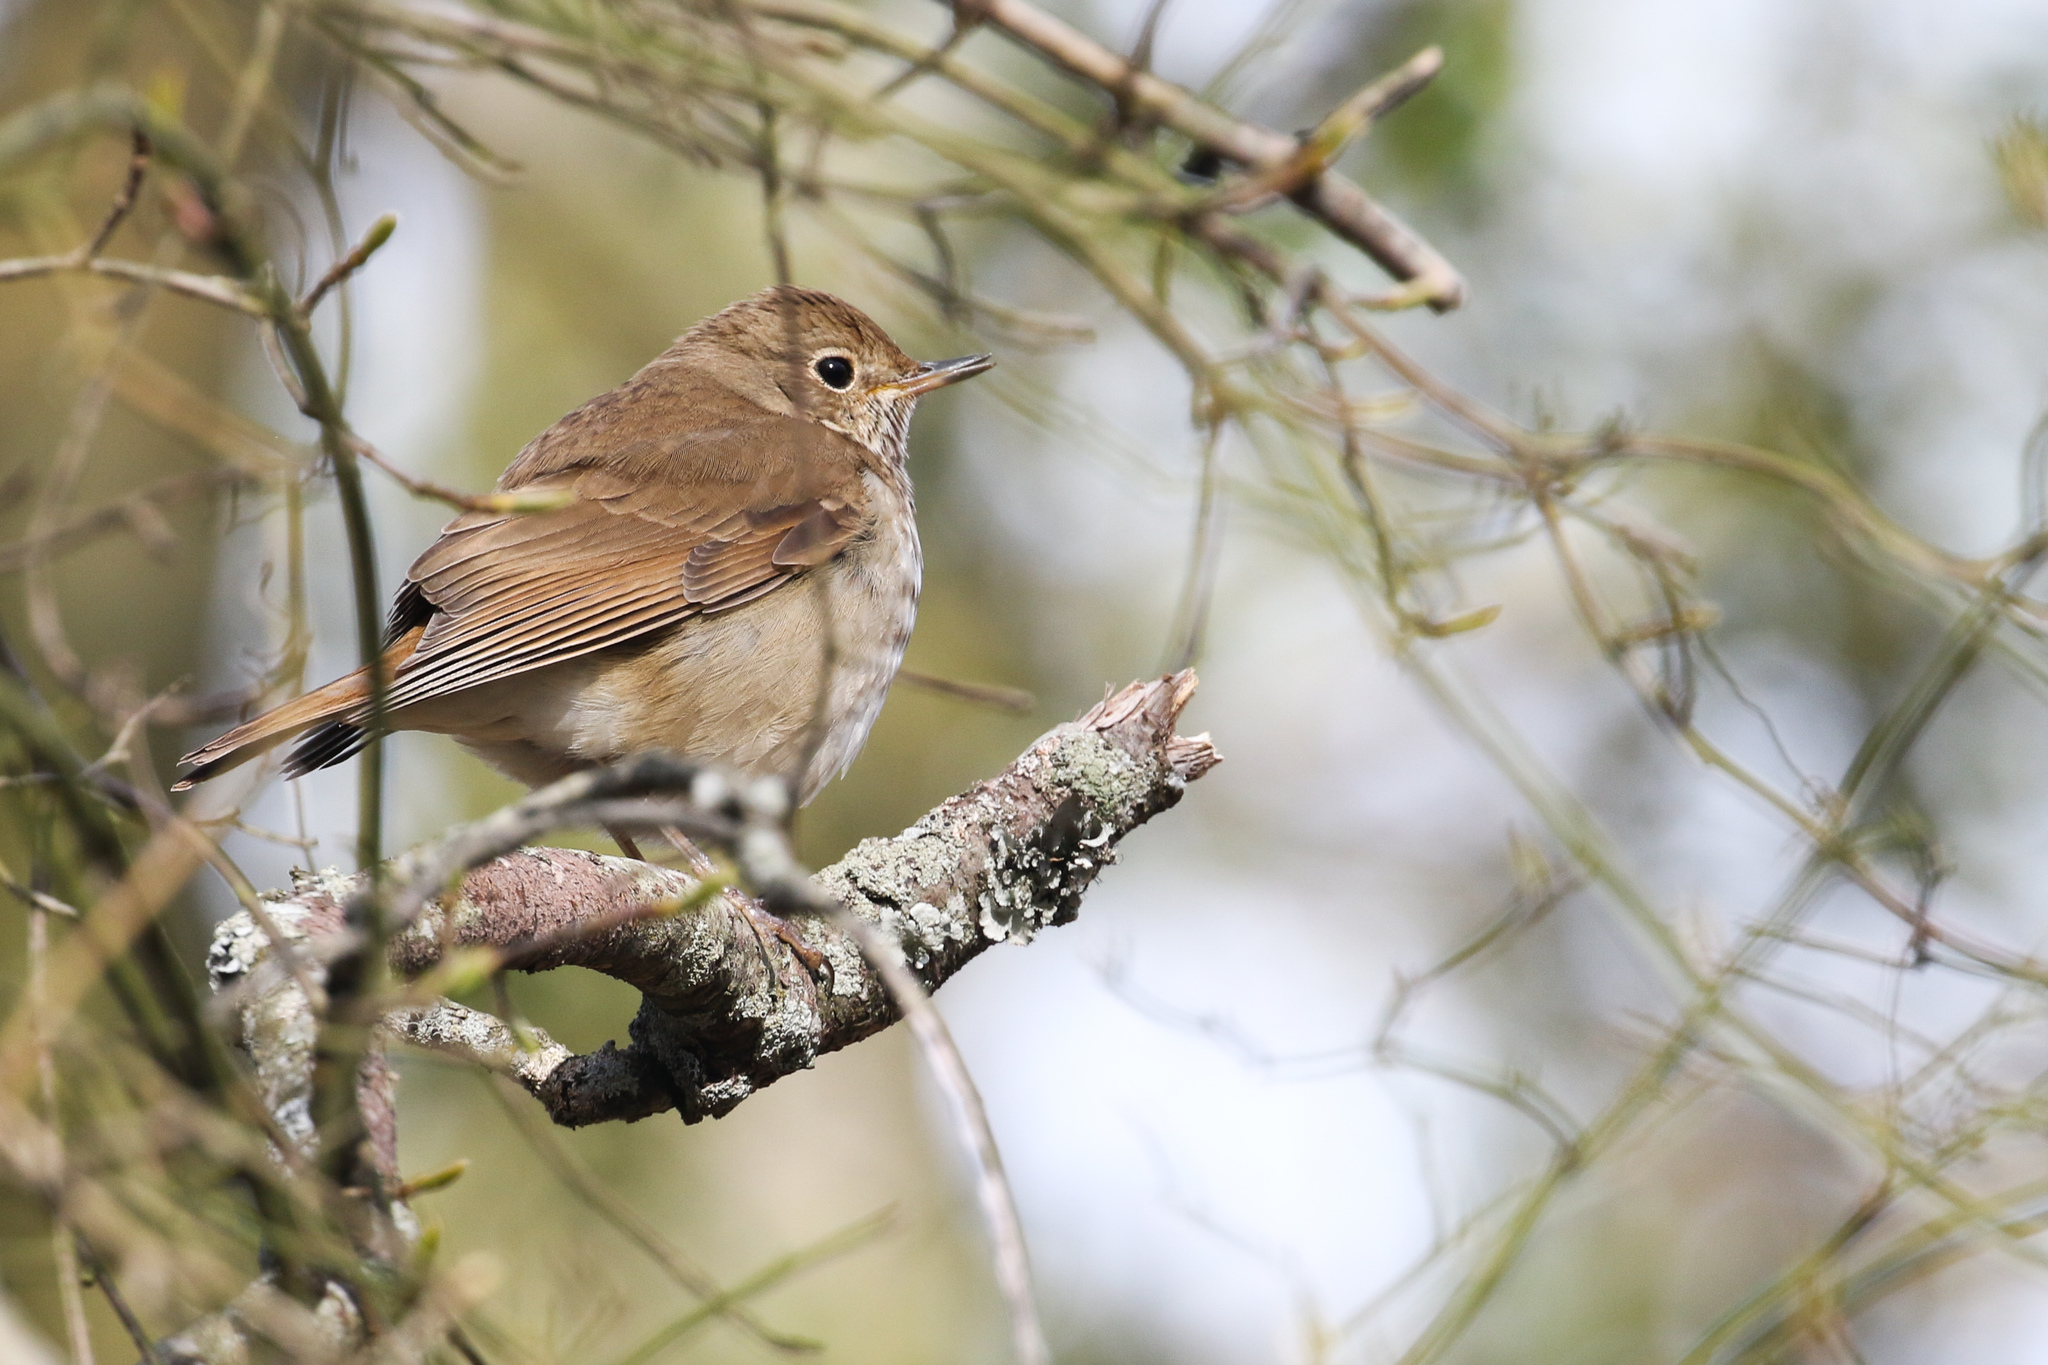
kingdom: Animalia
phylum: Chordata
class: Aves
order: Passeriformes
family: Turdidae
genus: Catharus
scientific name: Catharus guttatus
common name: Hermit thrush
